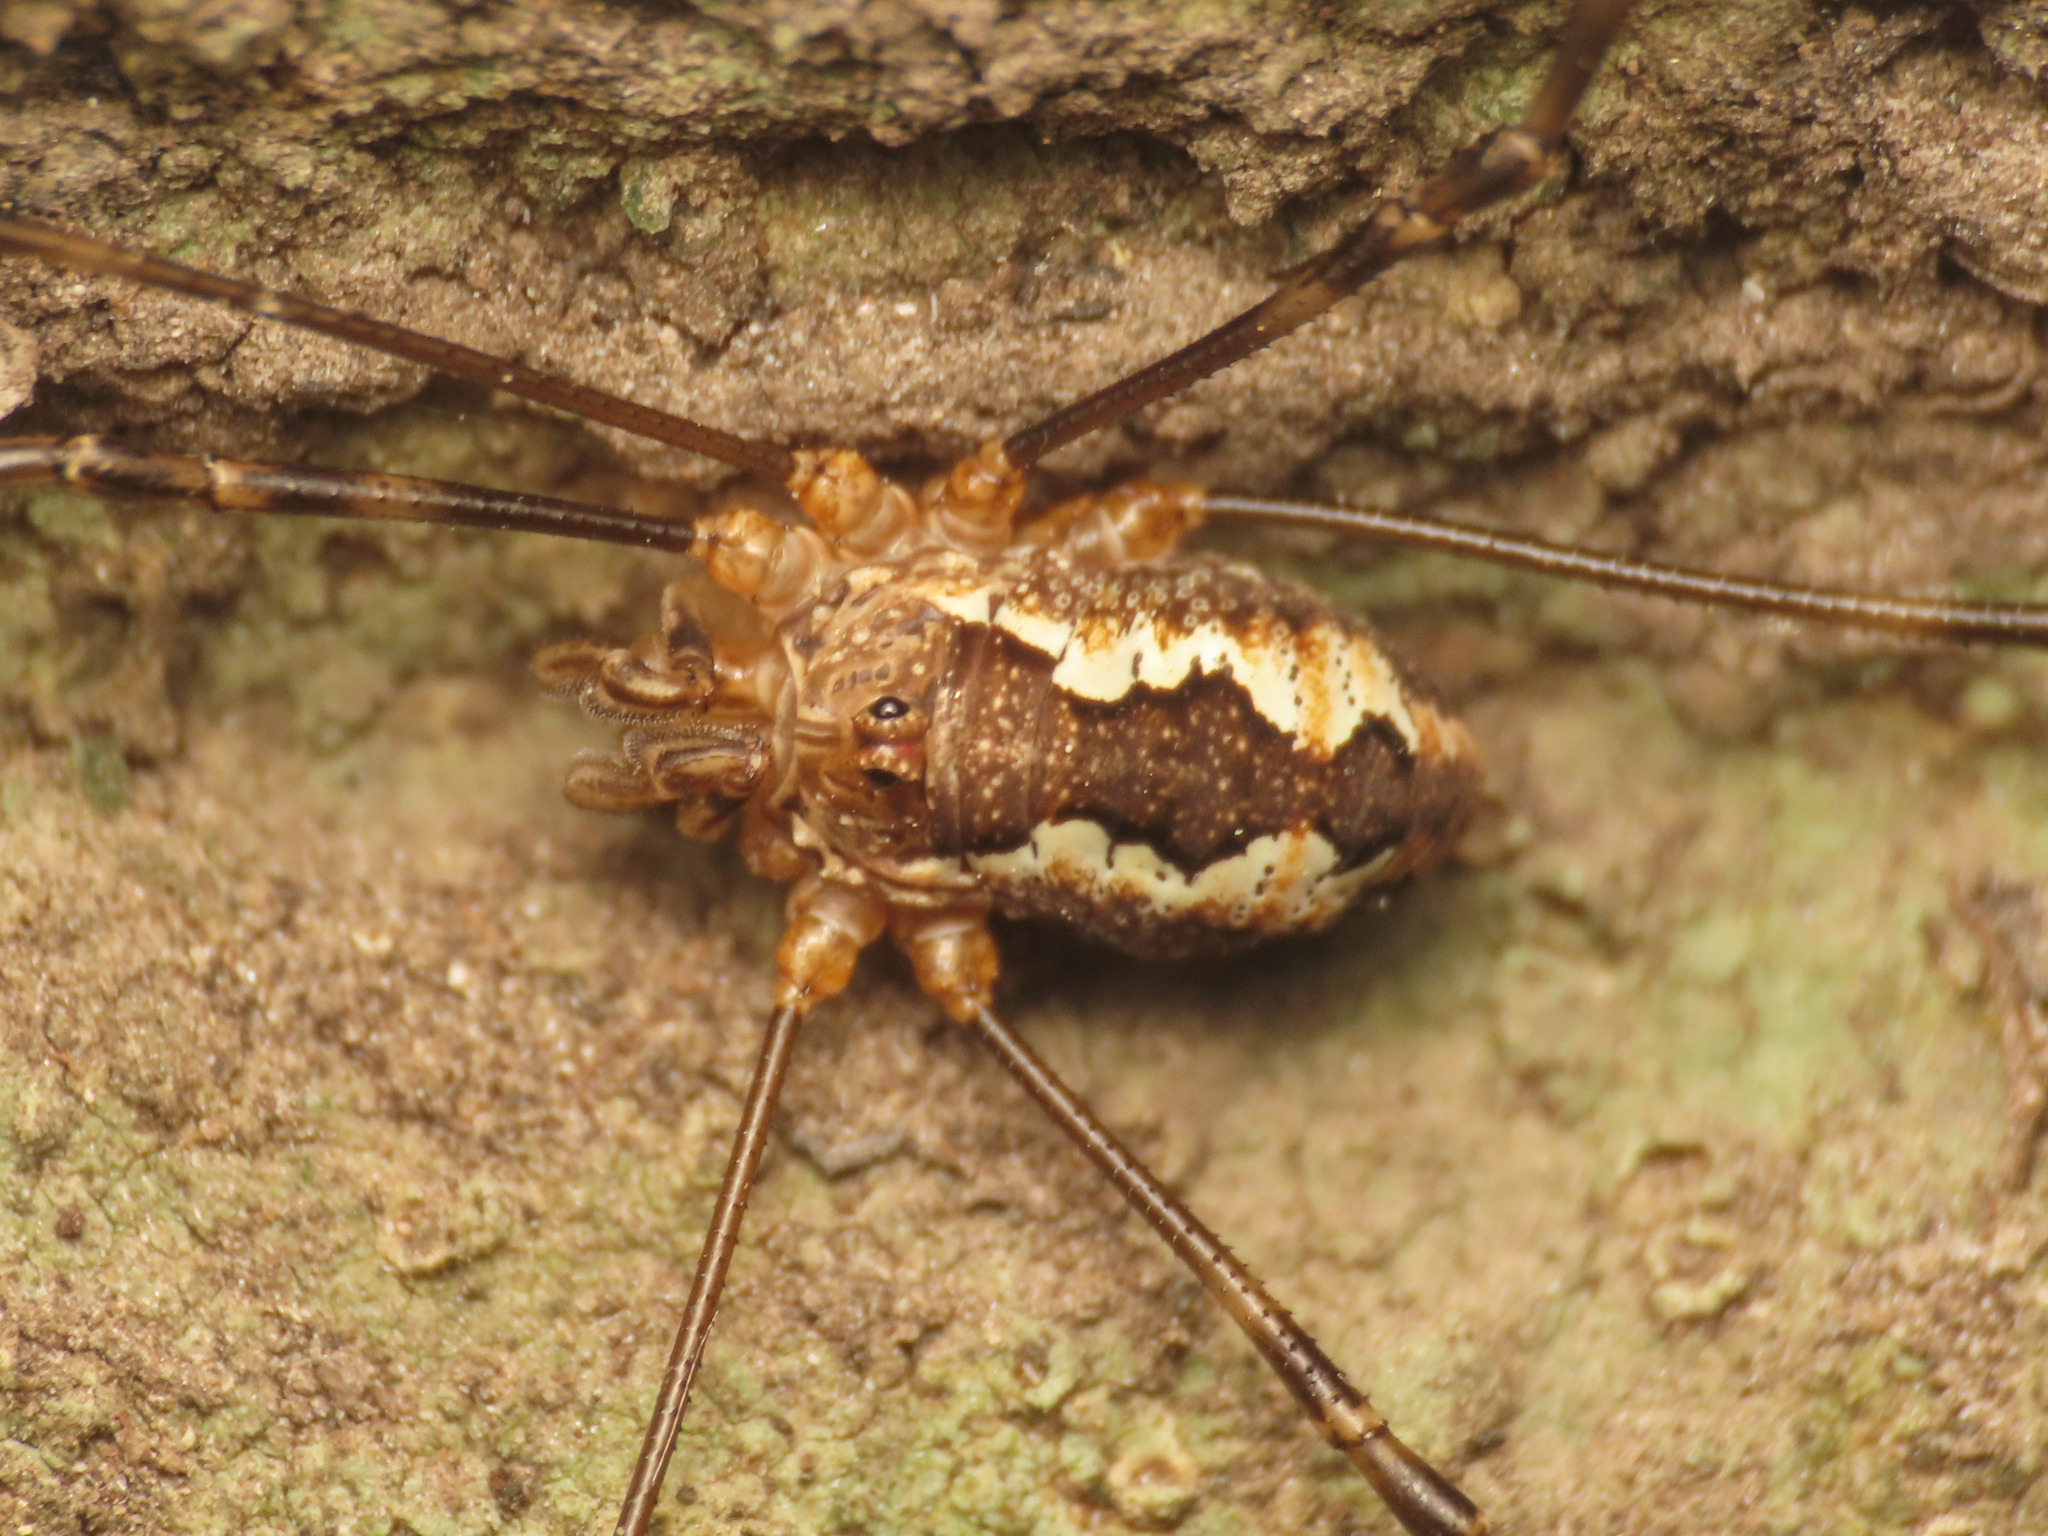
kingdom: Animalia
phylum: Arthropoda
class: Arachnida
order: Opiliones
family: Phalangiidae
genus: Dasylobus
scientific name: Dasylobus argentatus
